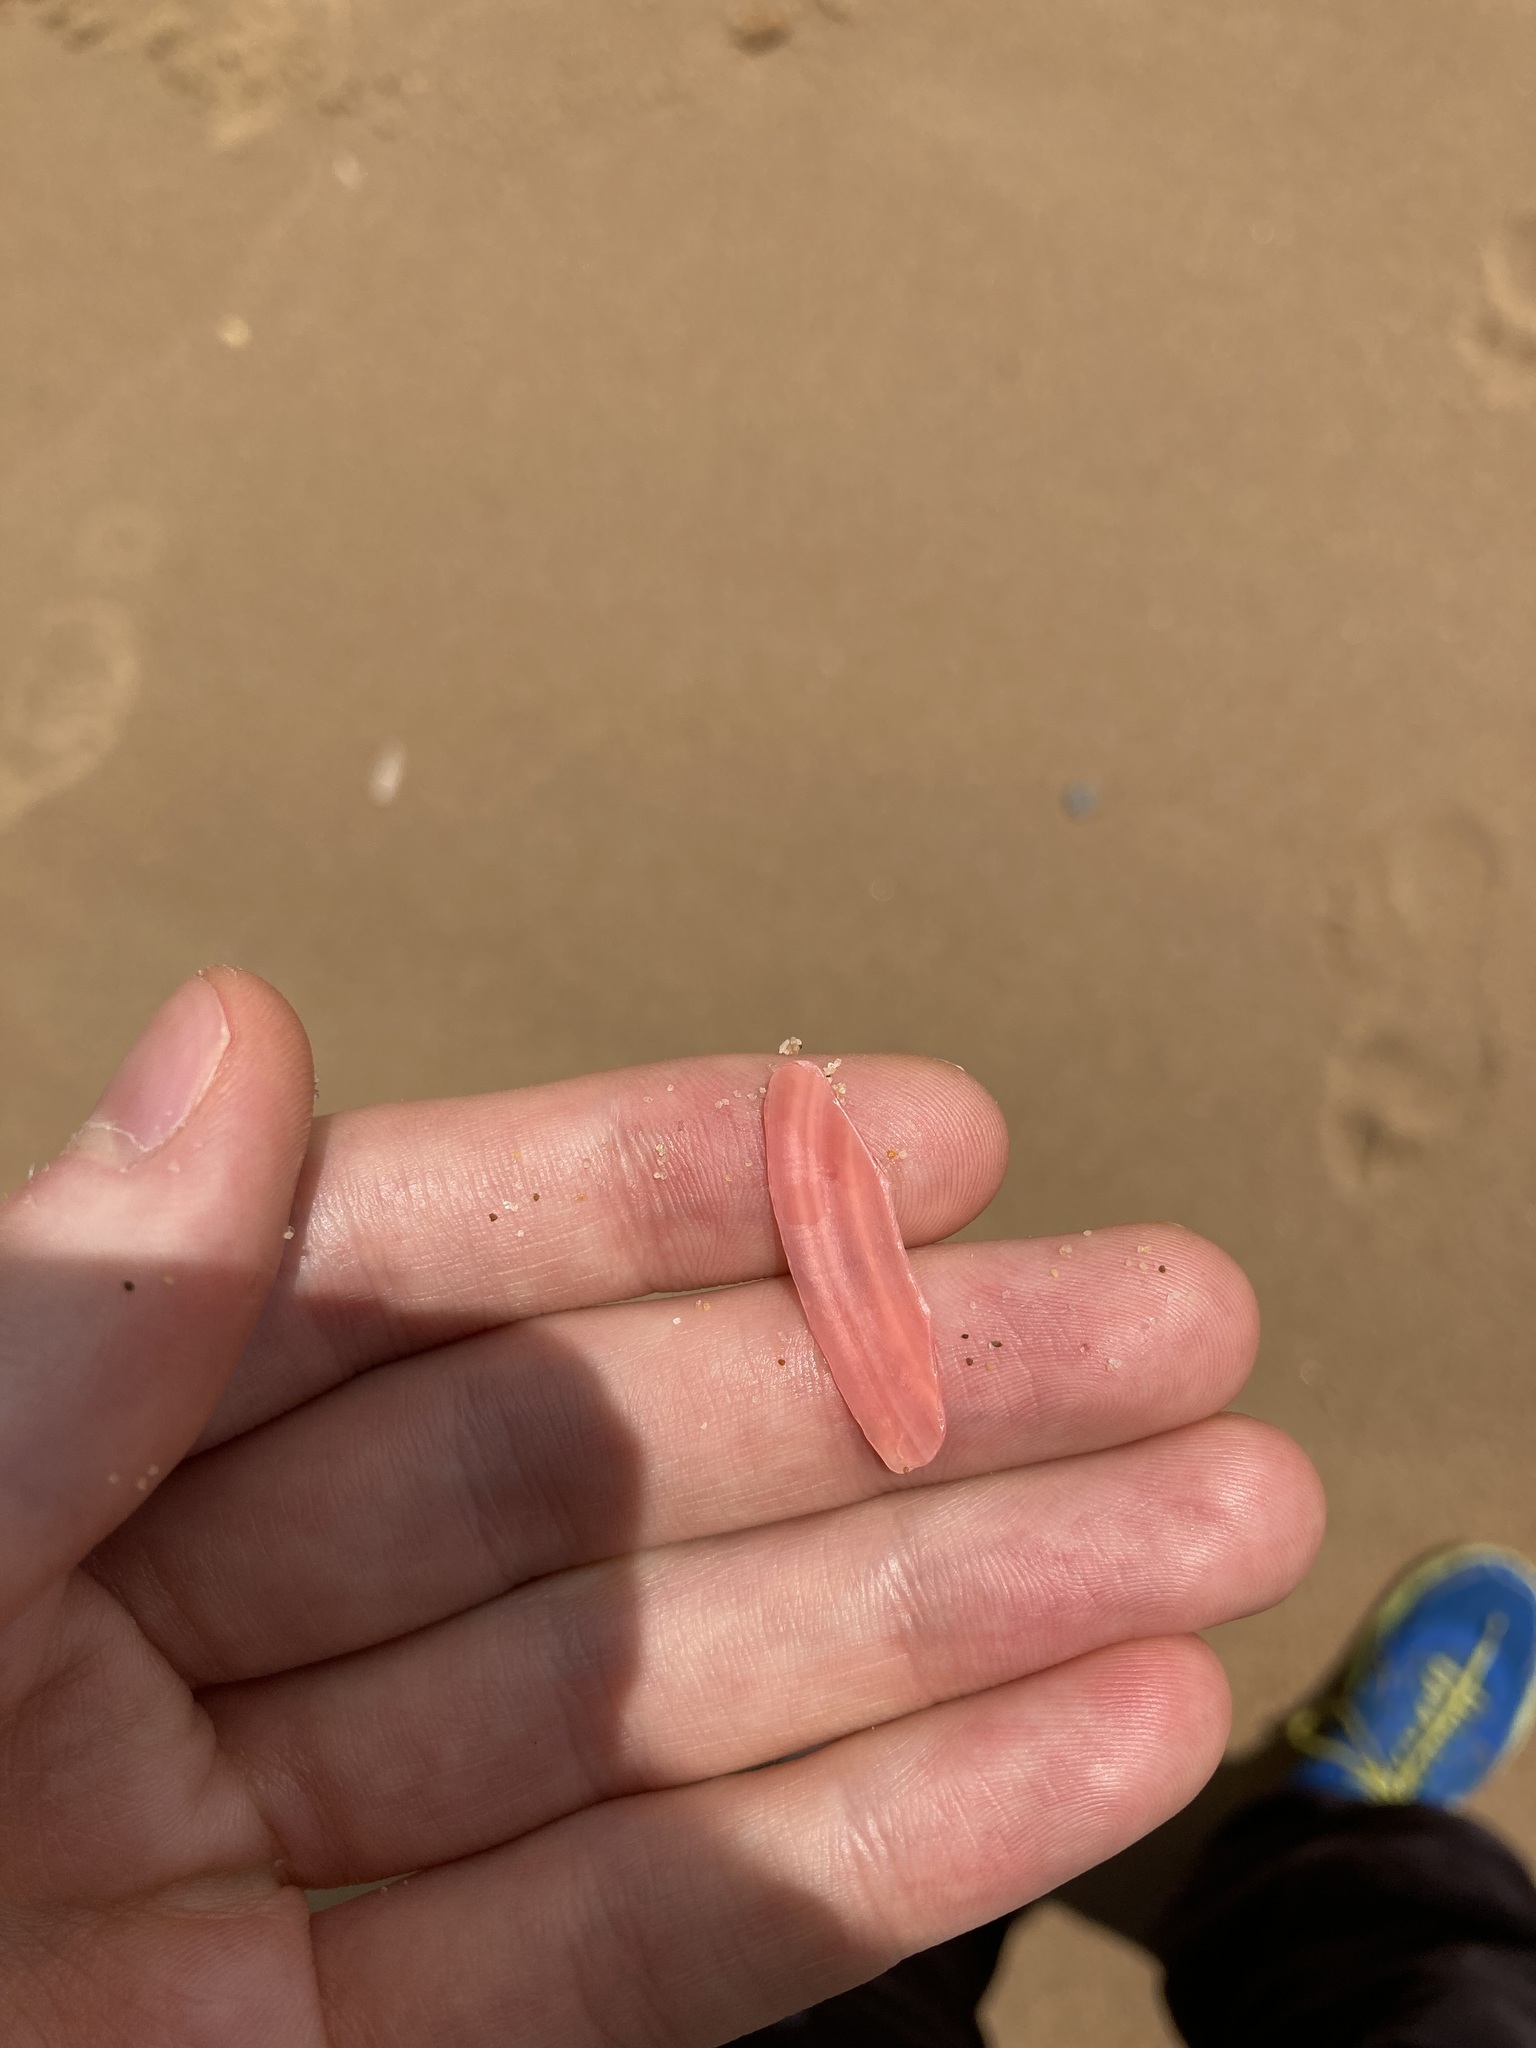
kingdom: Animalia
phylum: Mollusca
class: Bivalvia
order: Cardiida
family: Tellinidae
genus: Tellinota
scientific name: Tellinota albinella
